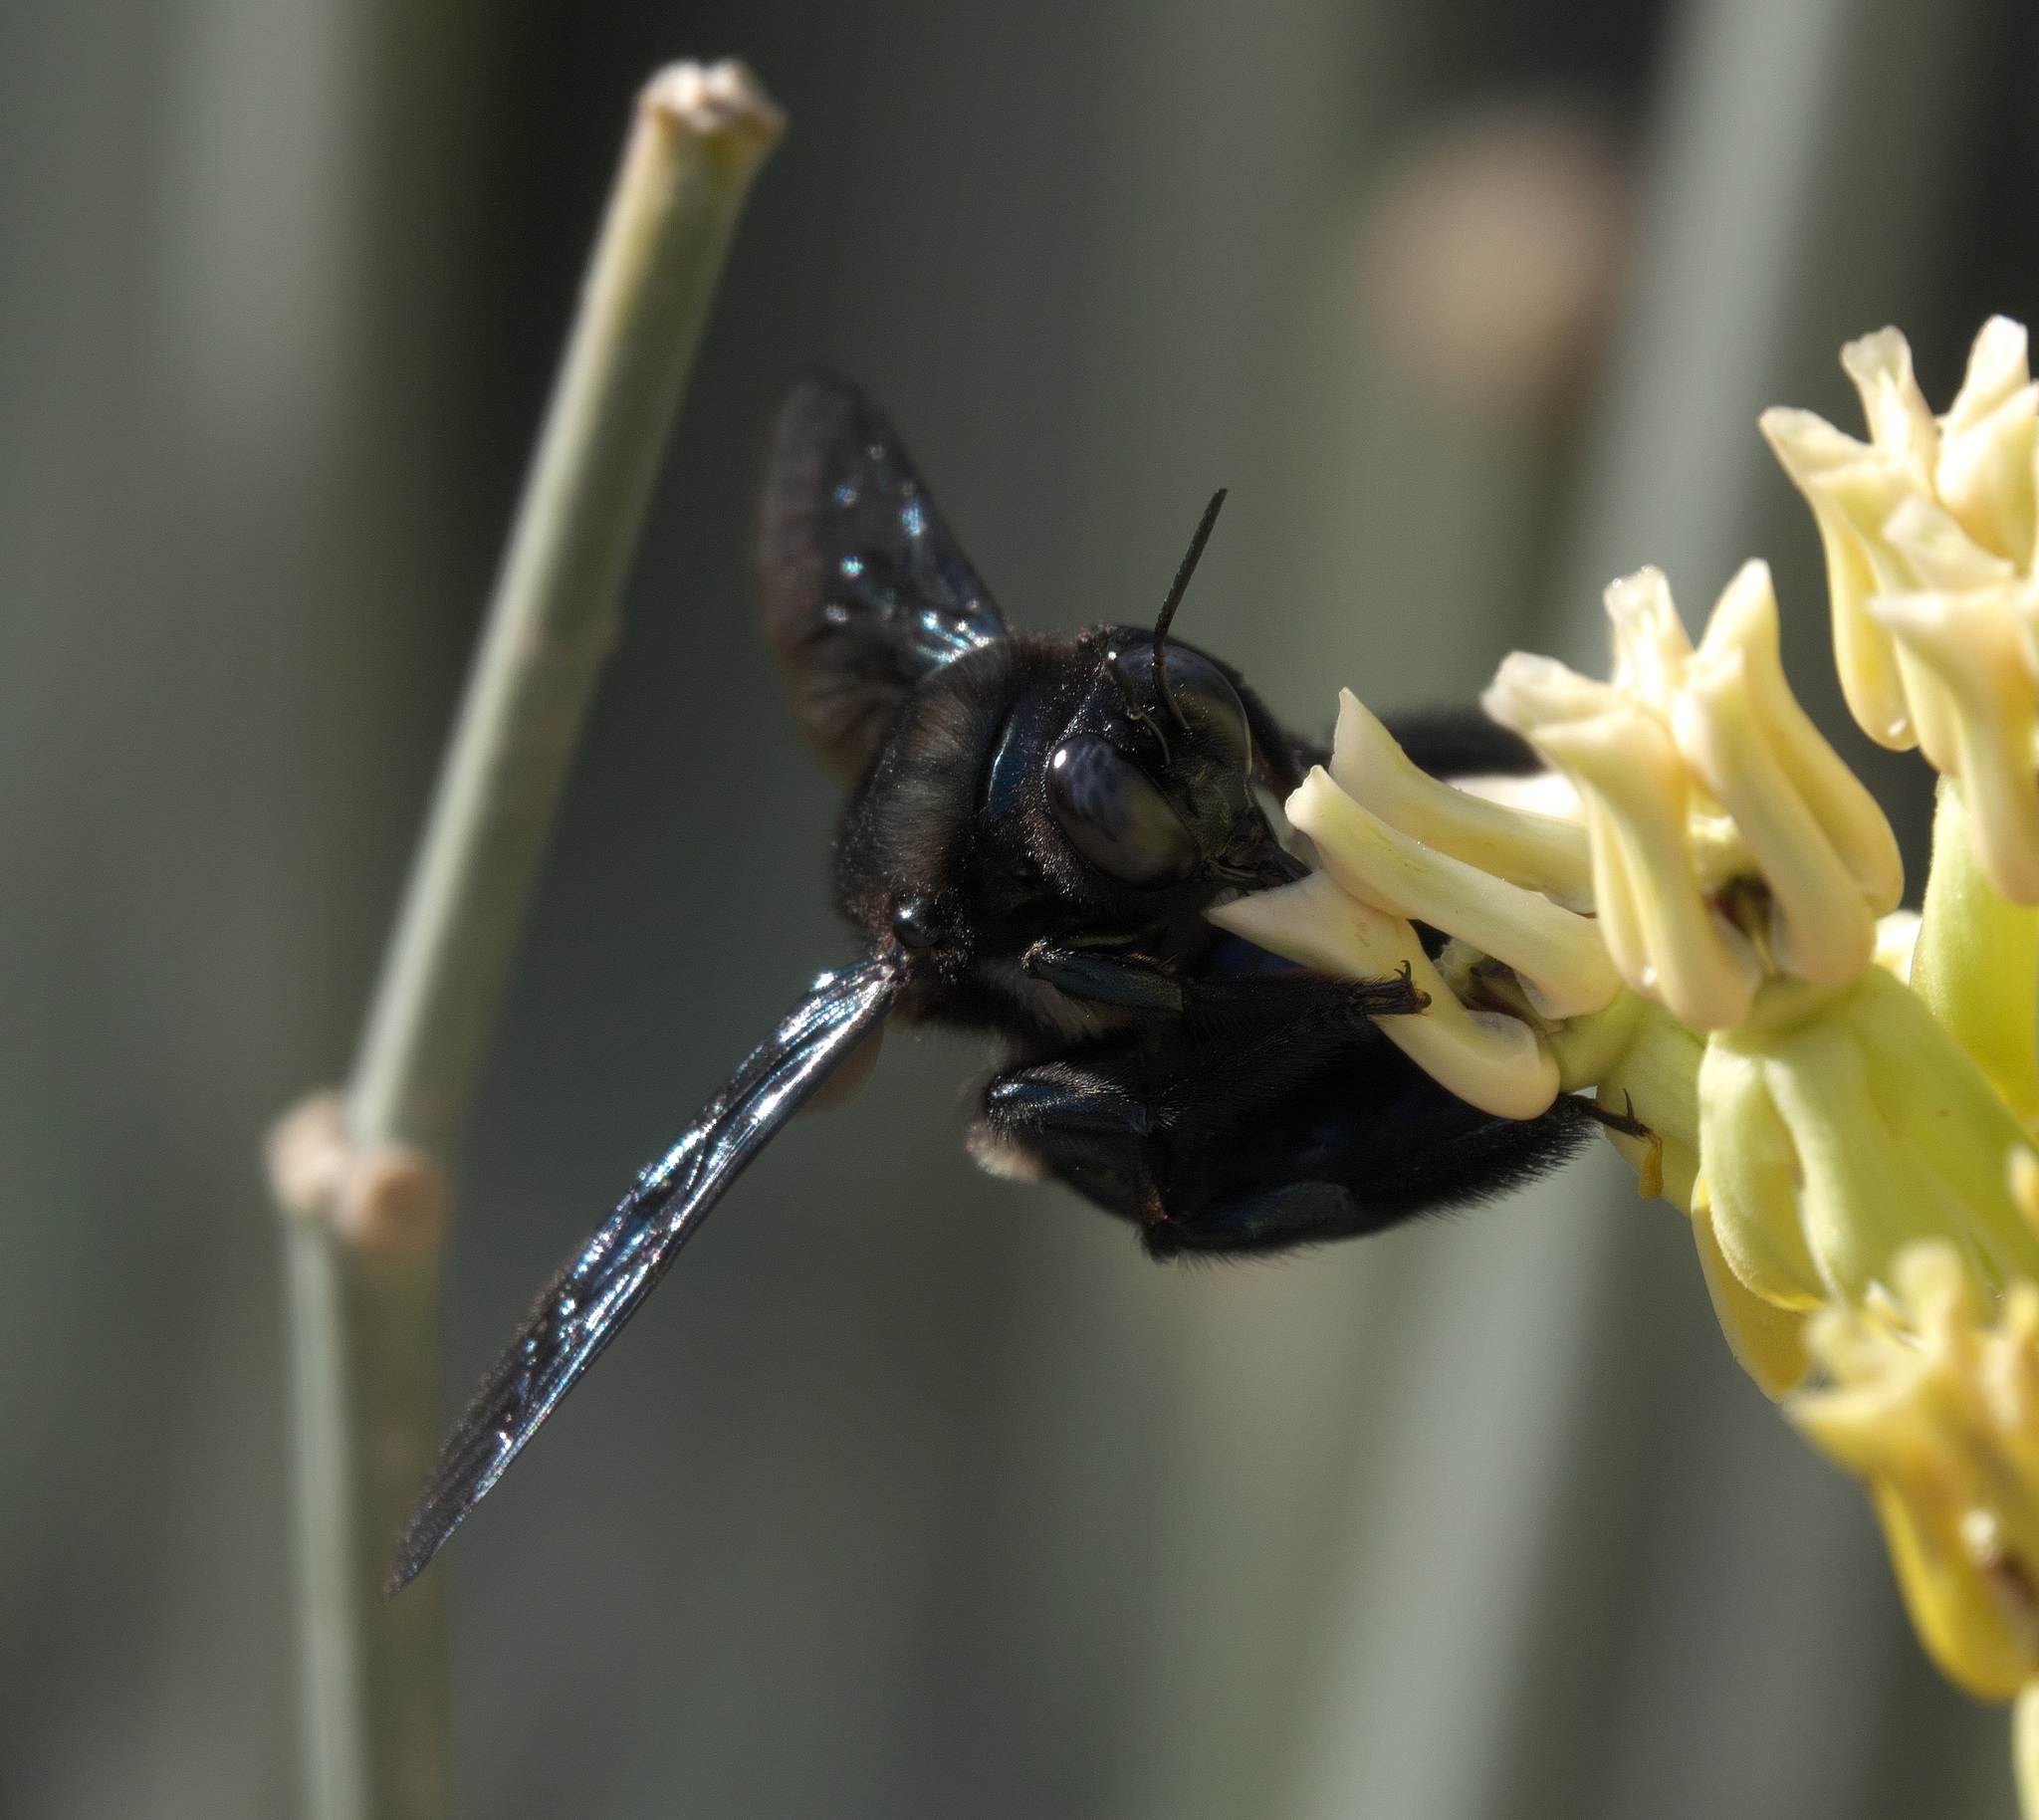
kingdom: Animalia
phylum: Arthropoda
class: Insecta
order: Hymenoptera
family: Apidae
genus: Xylocopa
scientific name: Xylocopa californica
